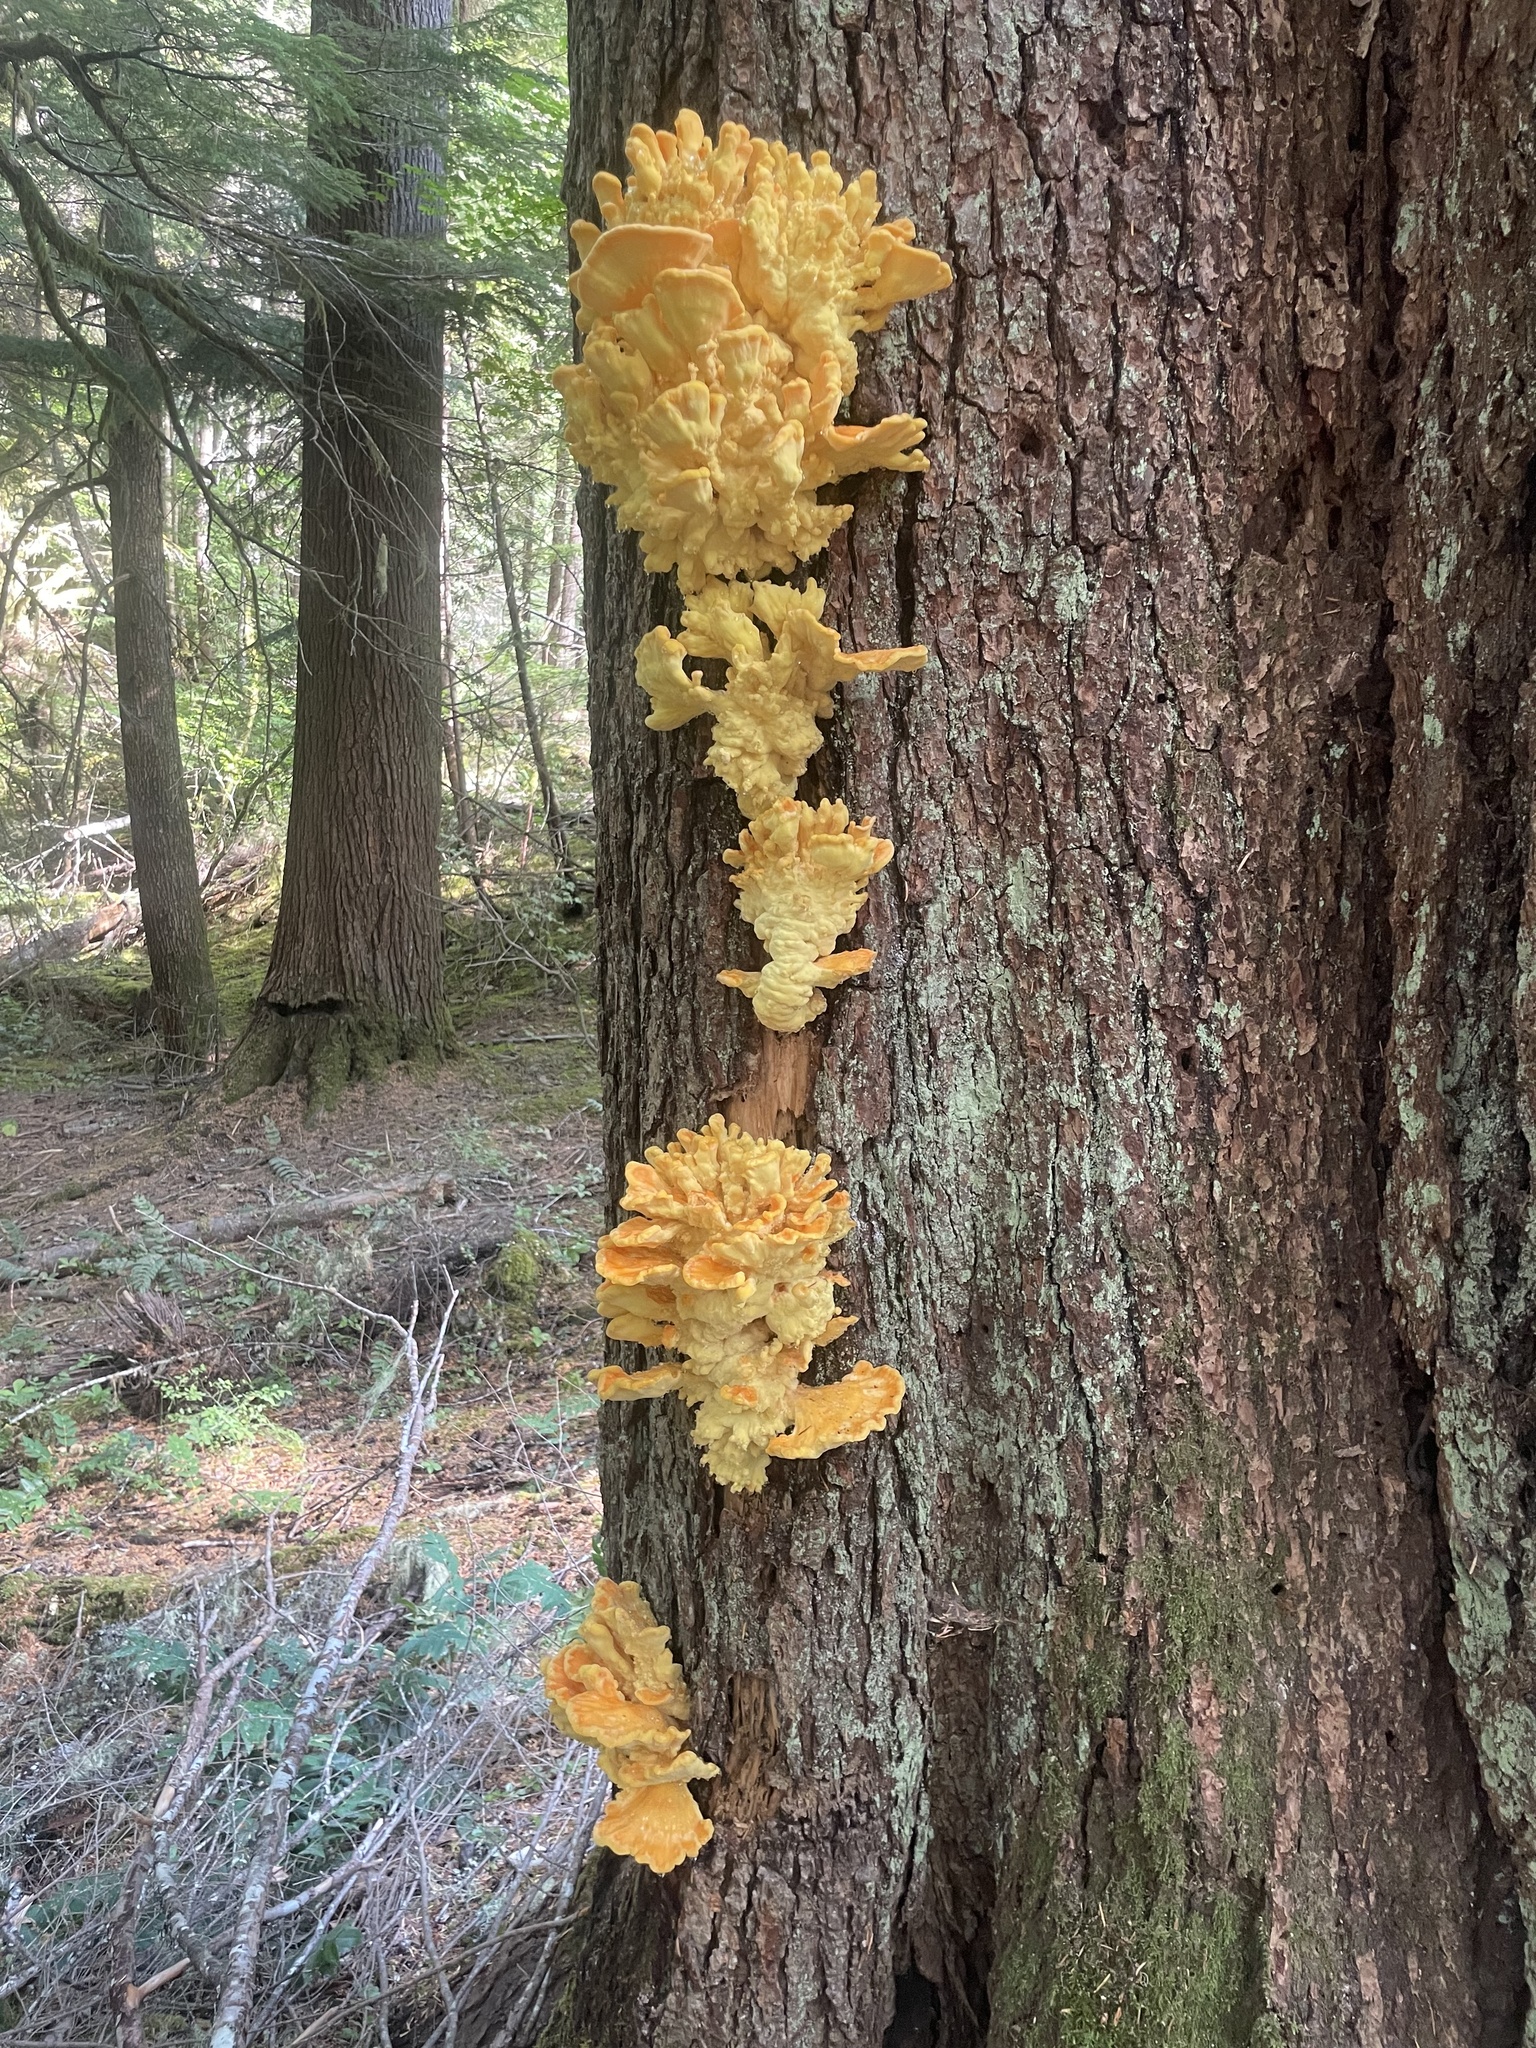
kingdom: Fungi
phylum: Basidiomycota
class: Agaricomycetes
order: Polyporales
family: Laetiporaceae
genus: Laetiporus
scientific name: Laetiporus conifericola
